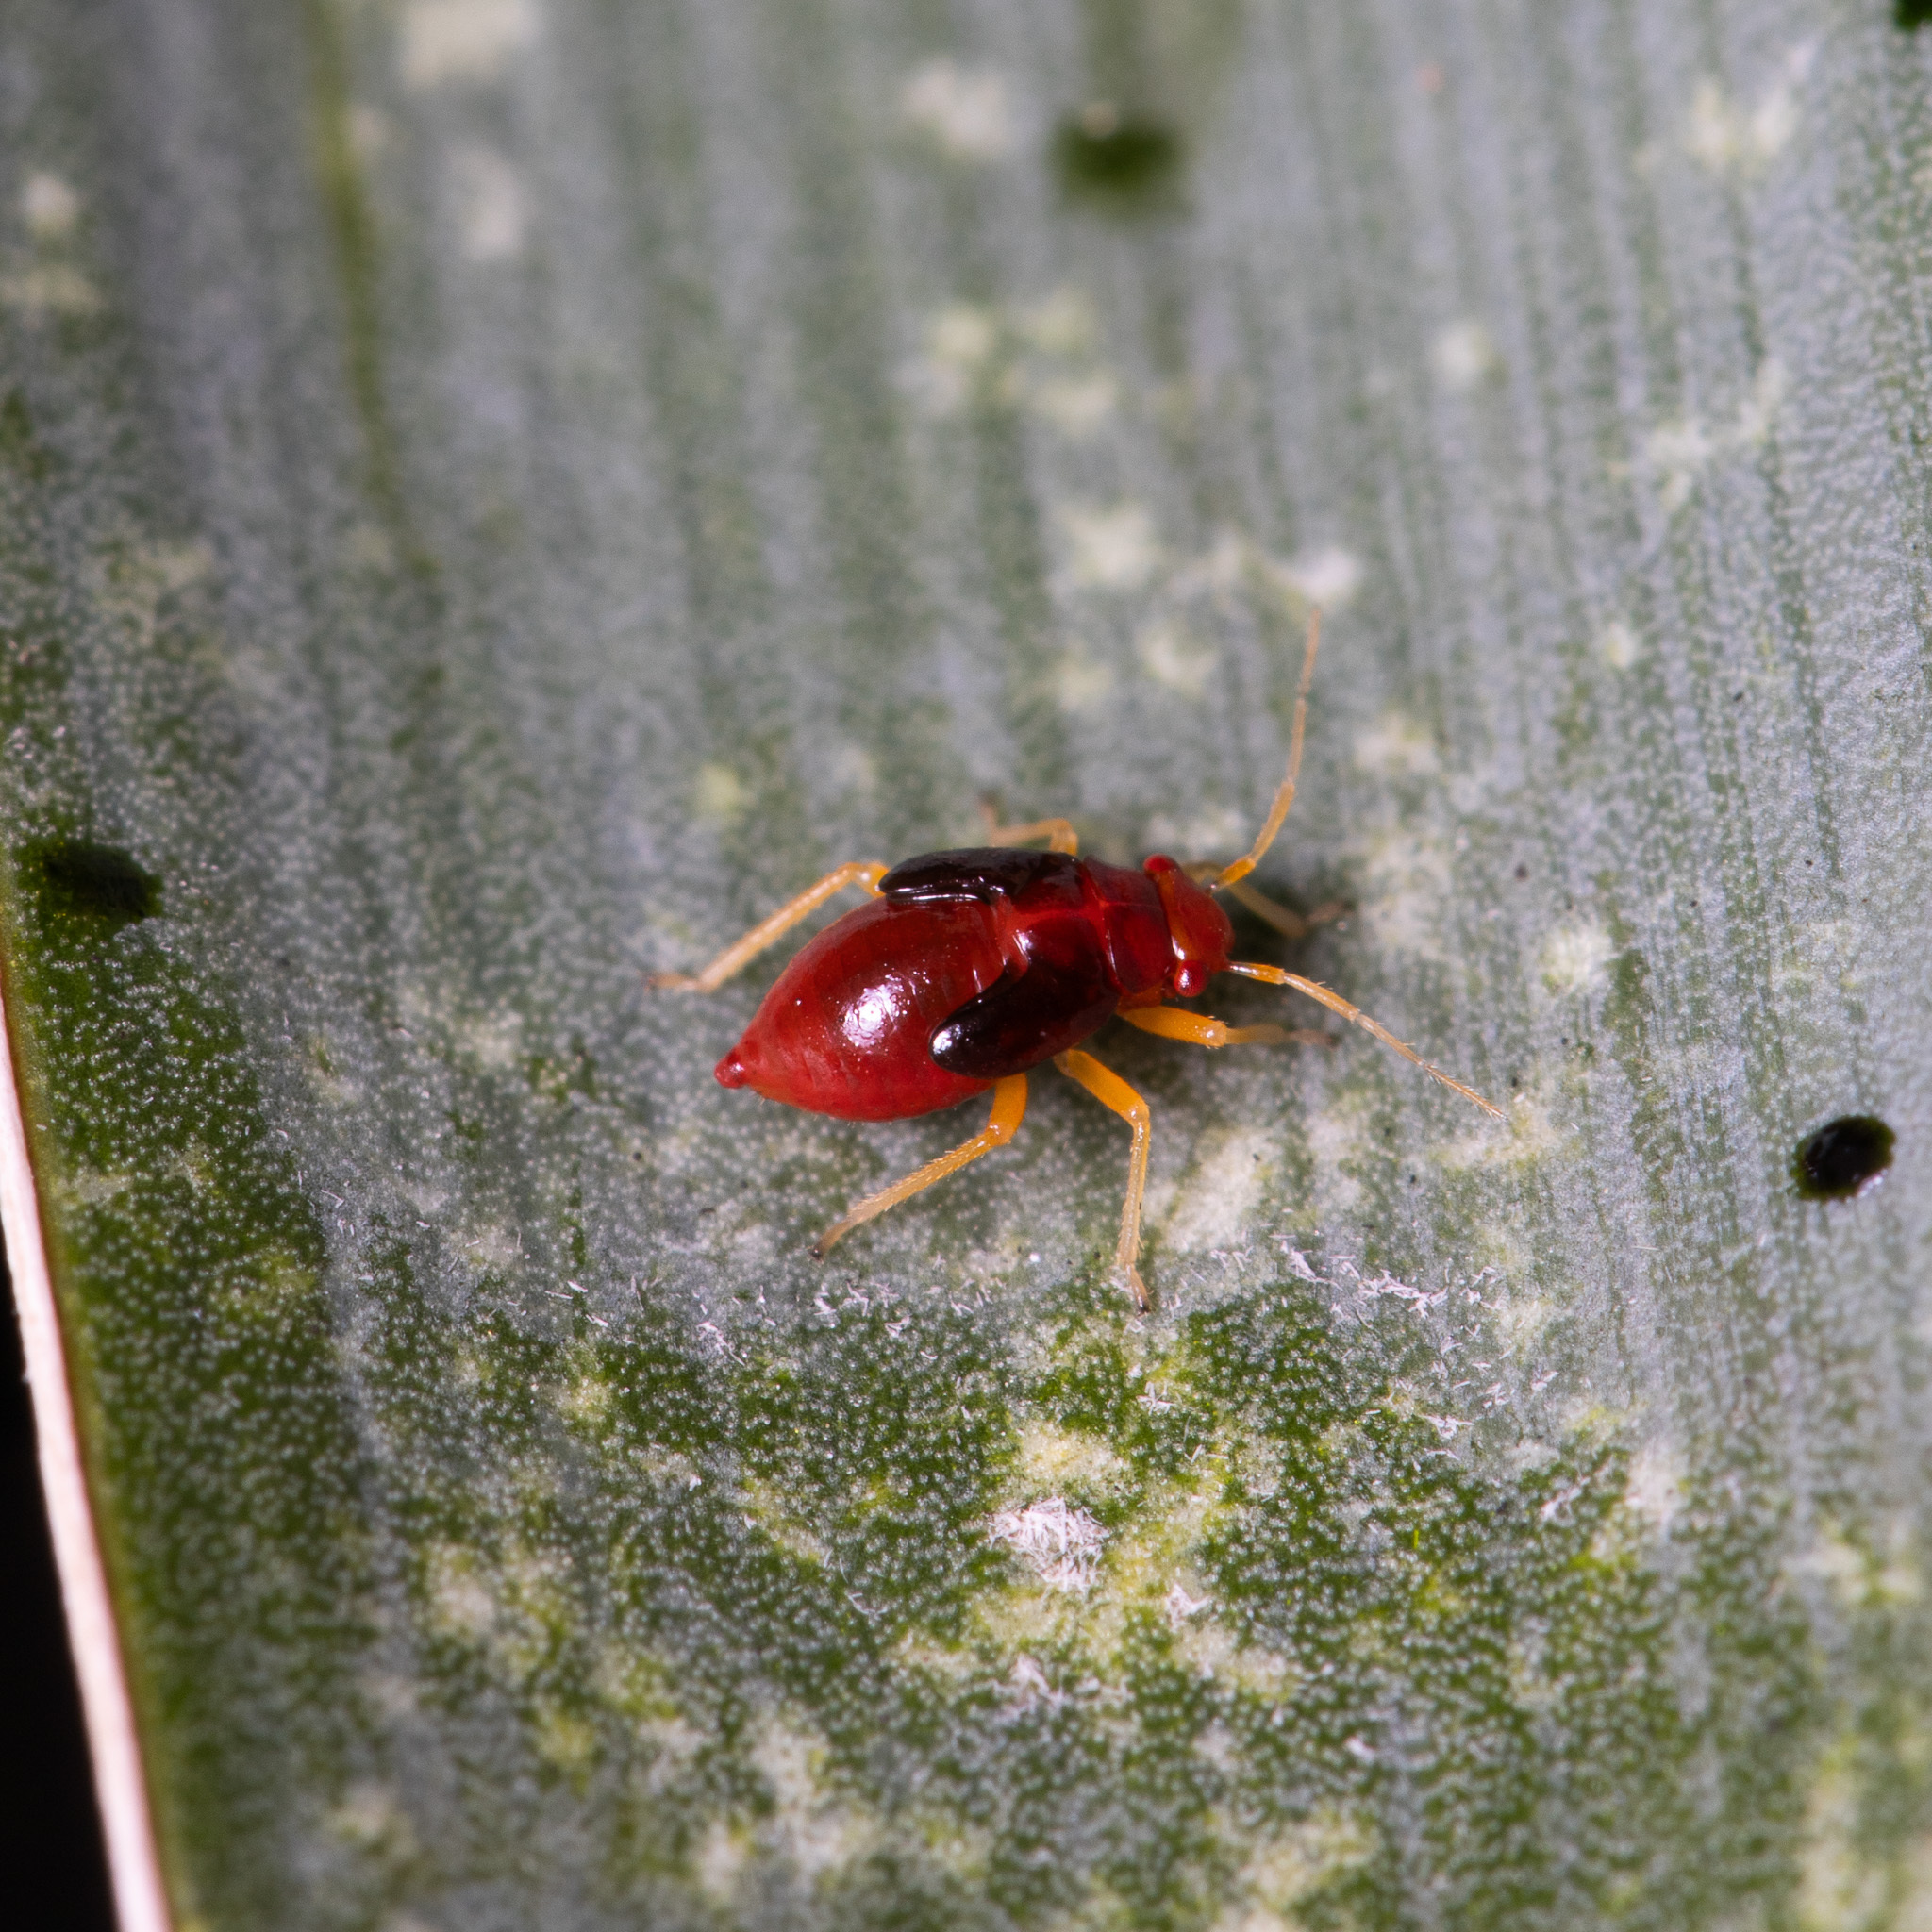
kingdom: Animalia
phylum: Arthropoda
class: Insecta
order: Hemiptera
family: Miridae
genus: Halticotoma
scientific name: Halticotoma valida
